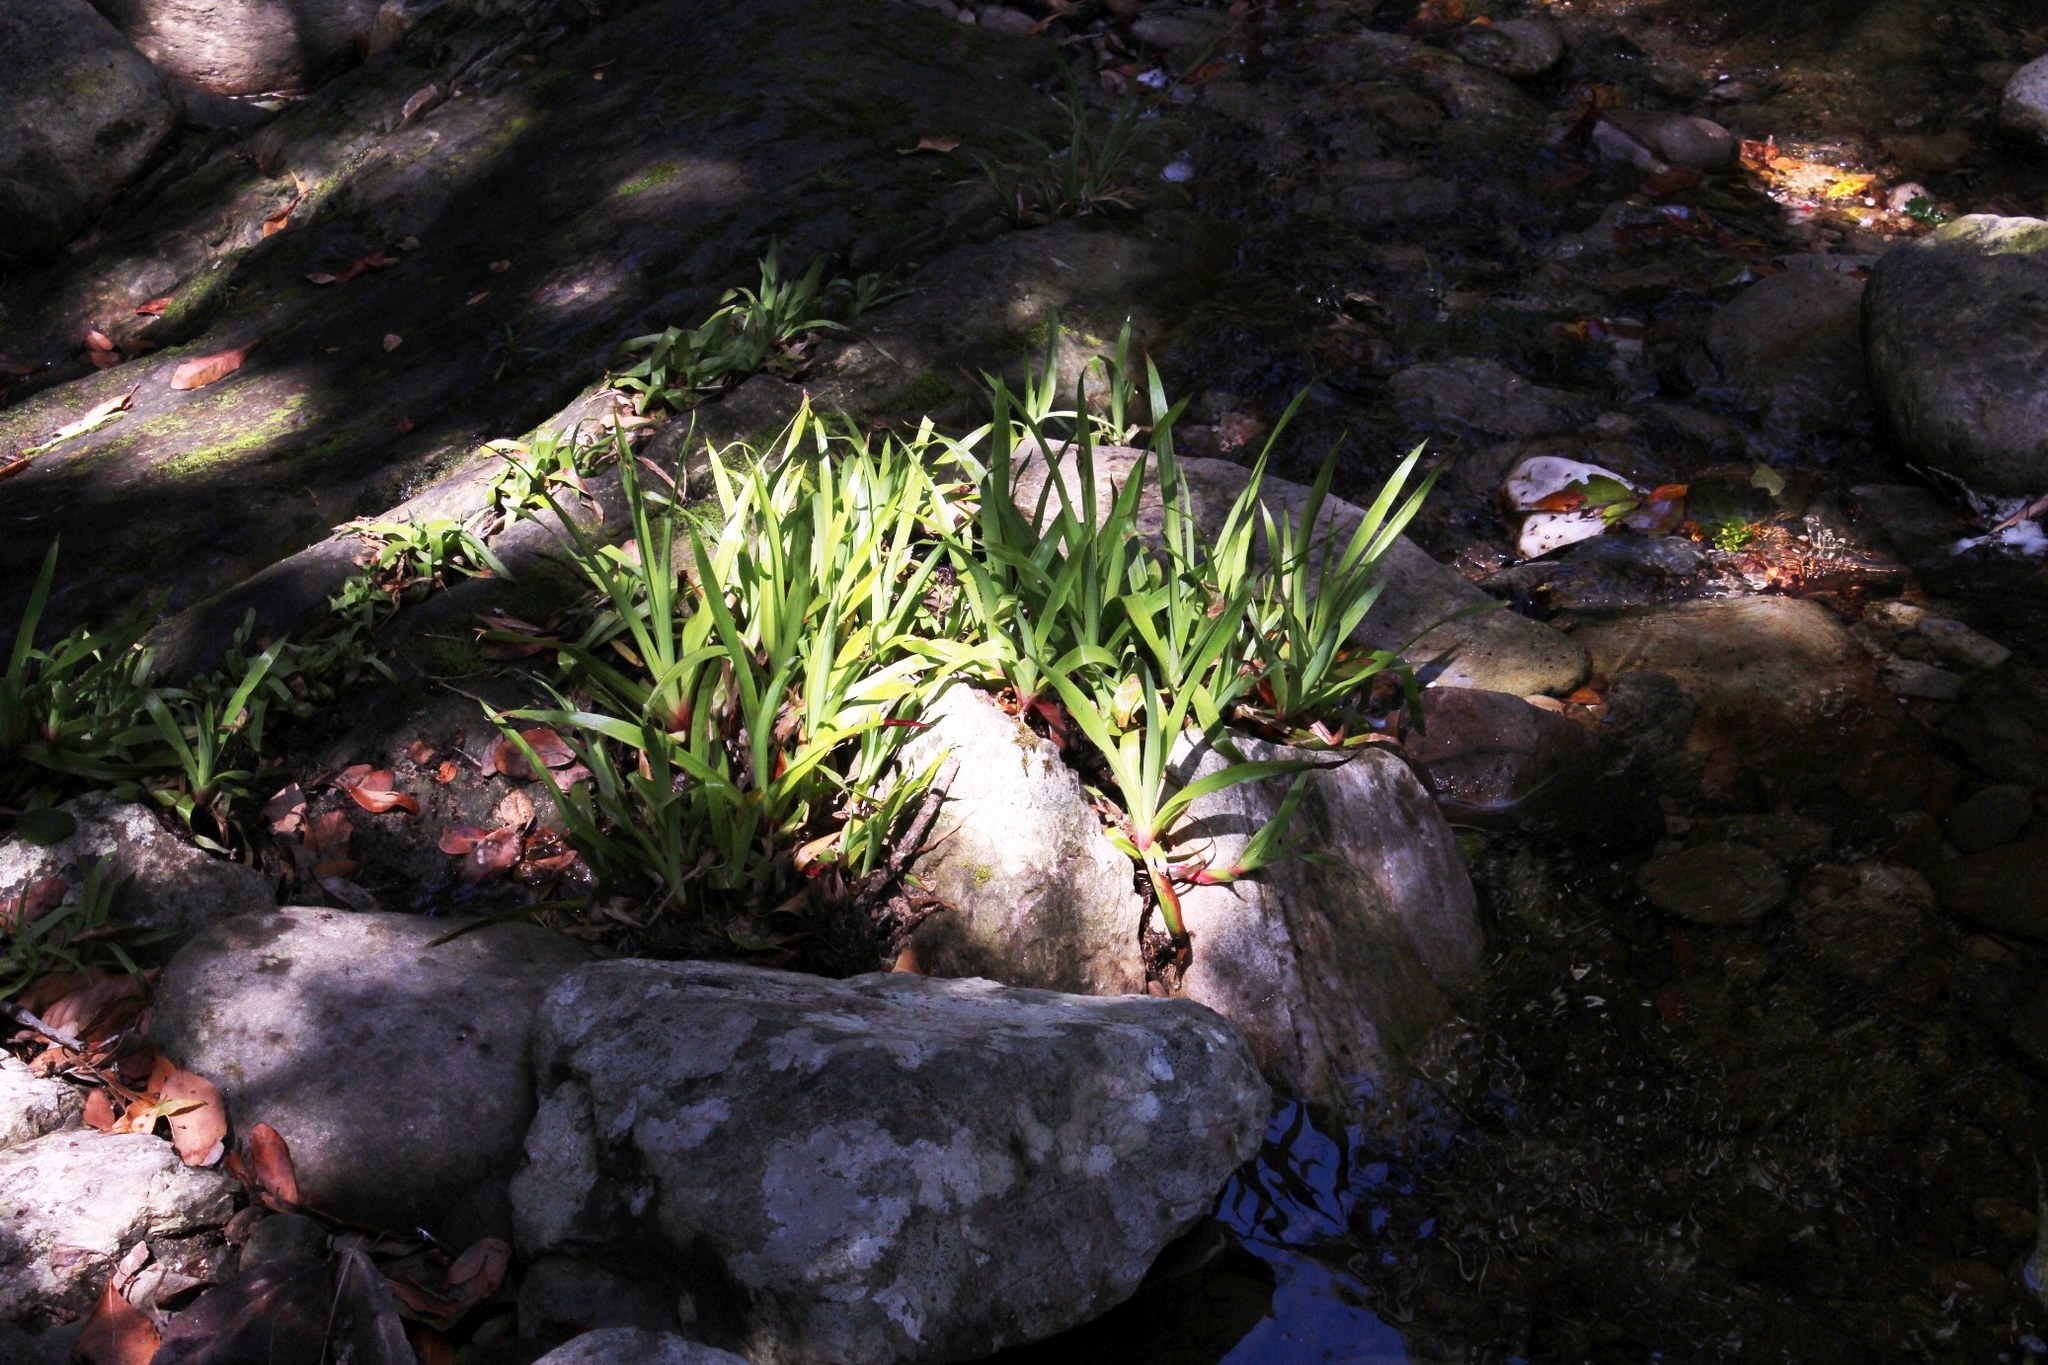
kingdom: Plantae
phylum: Tracheophyta
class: Liliopsida
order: Poales
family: Juncaceae
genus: Juncus
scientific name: Juncus lomatophyllus
